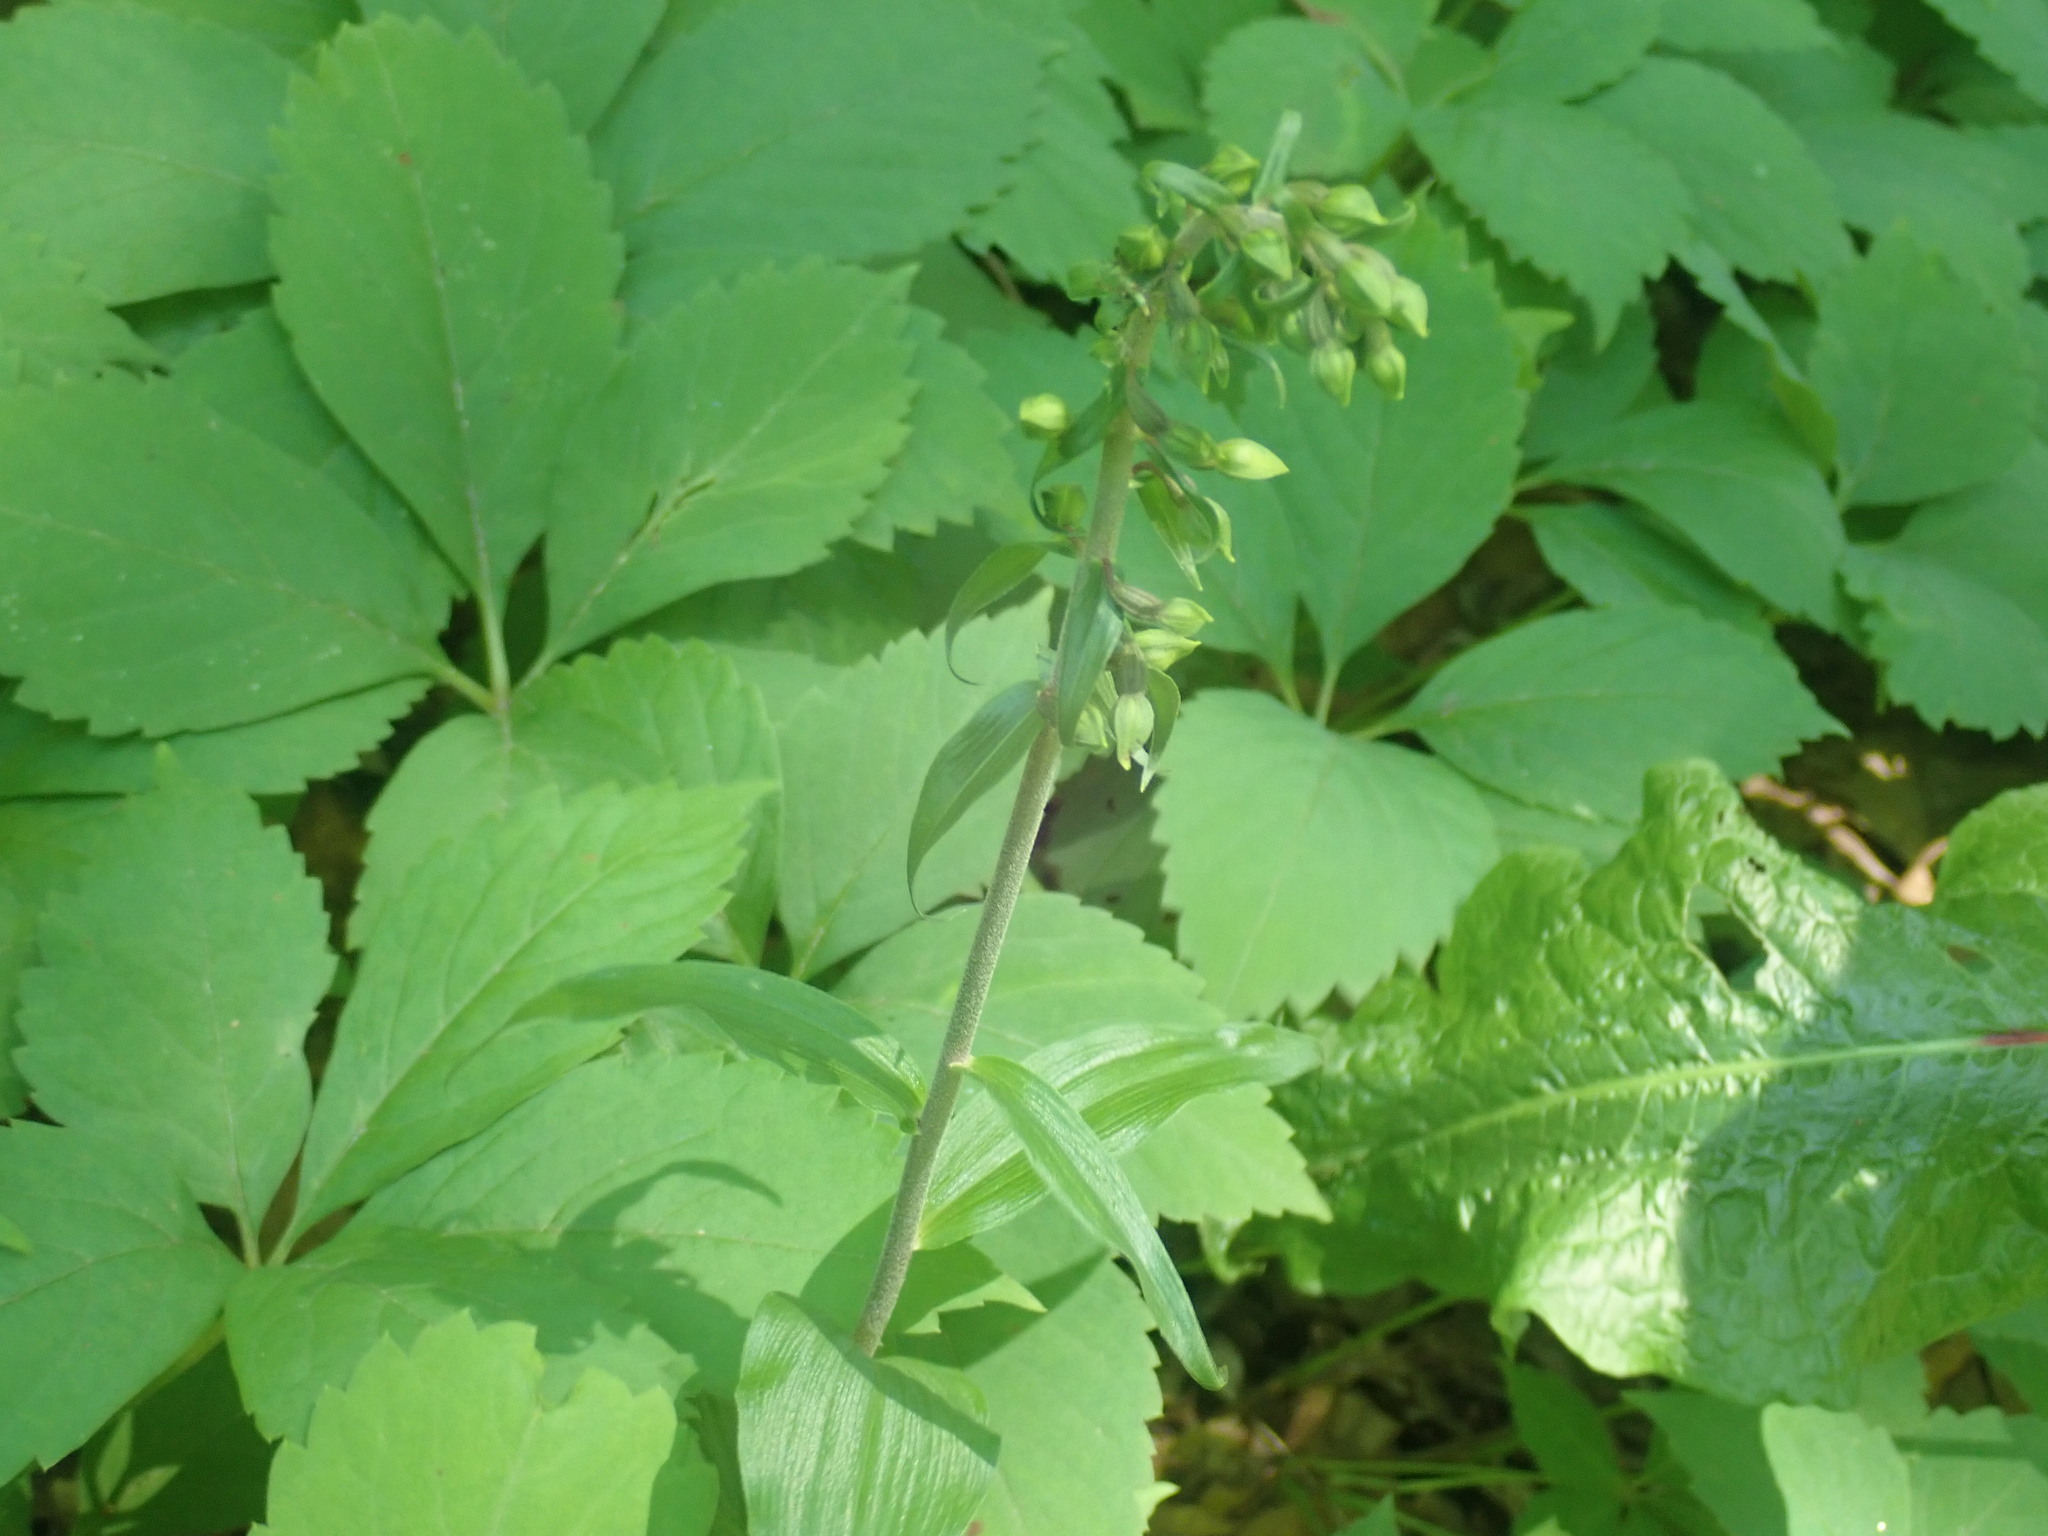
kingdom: Plantae
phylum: Tracheophyta
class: Liliopsida
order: Asparagales
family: Orchidaceae
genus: Epipactis
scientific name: Epipactis helleborine
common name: Broad-leaved helleborine
